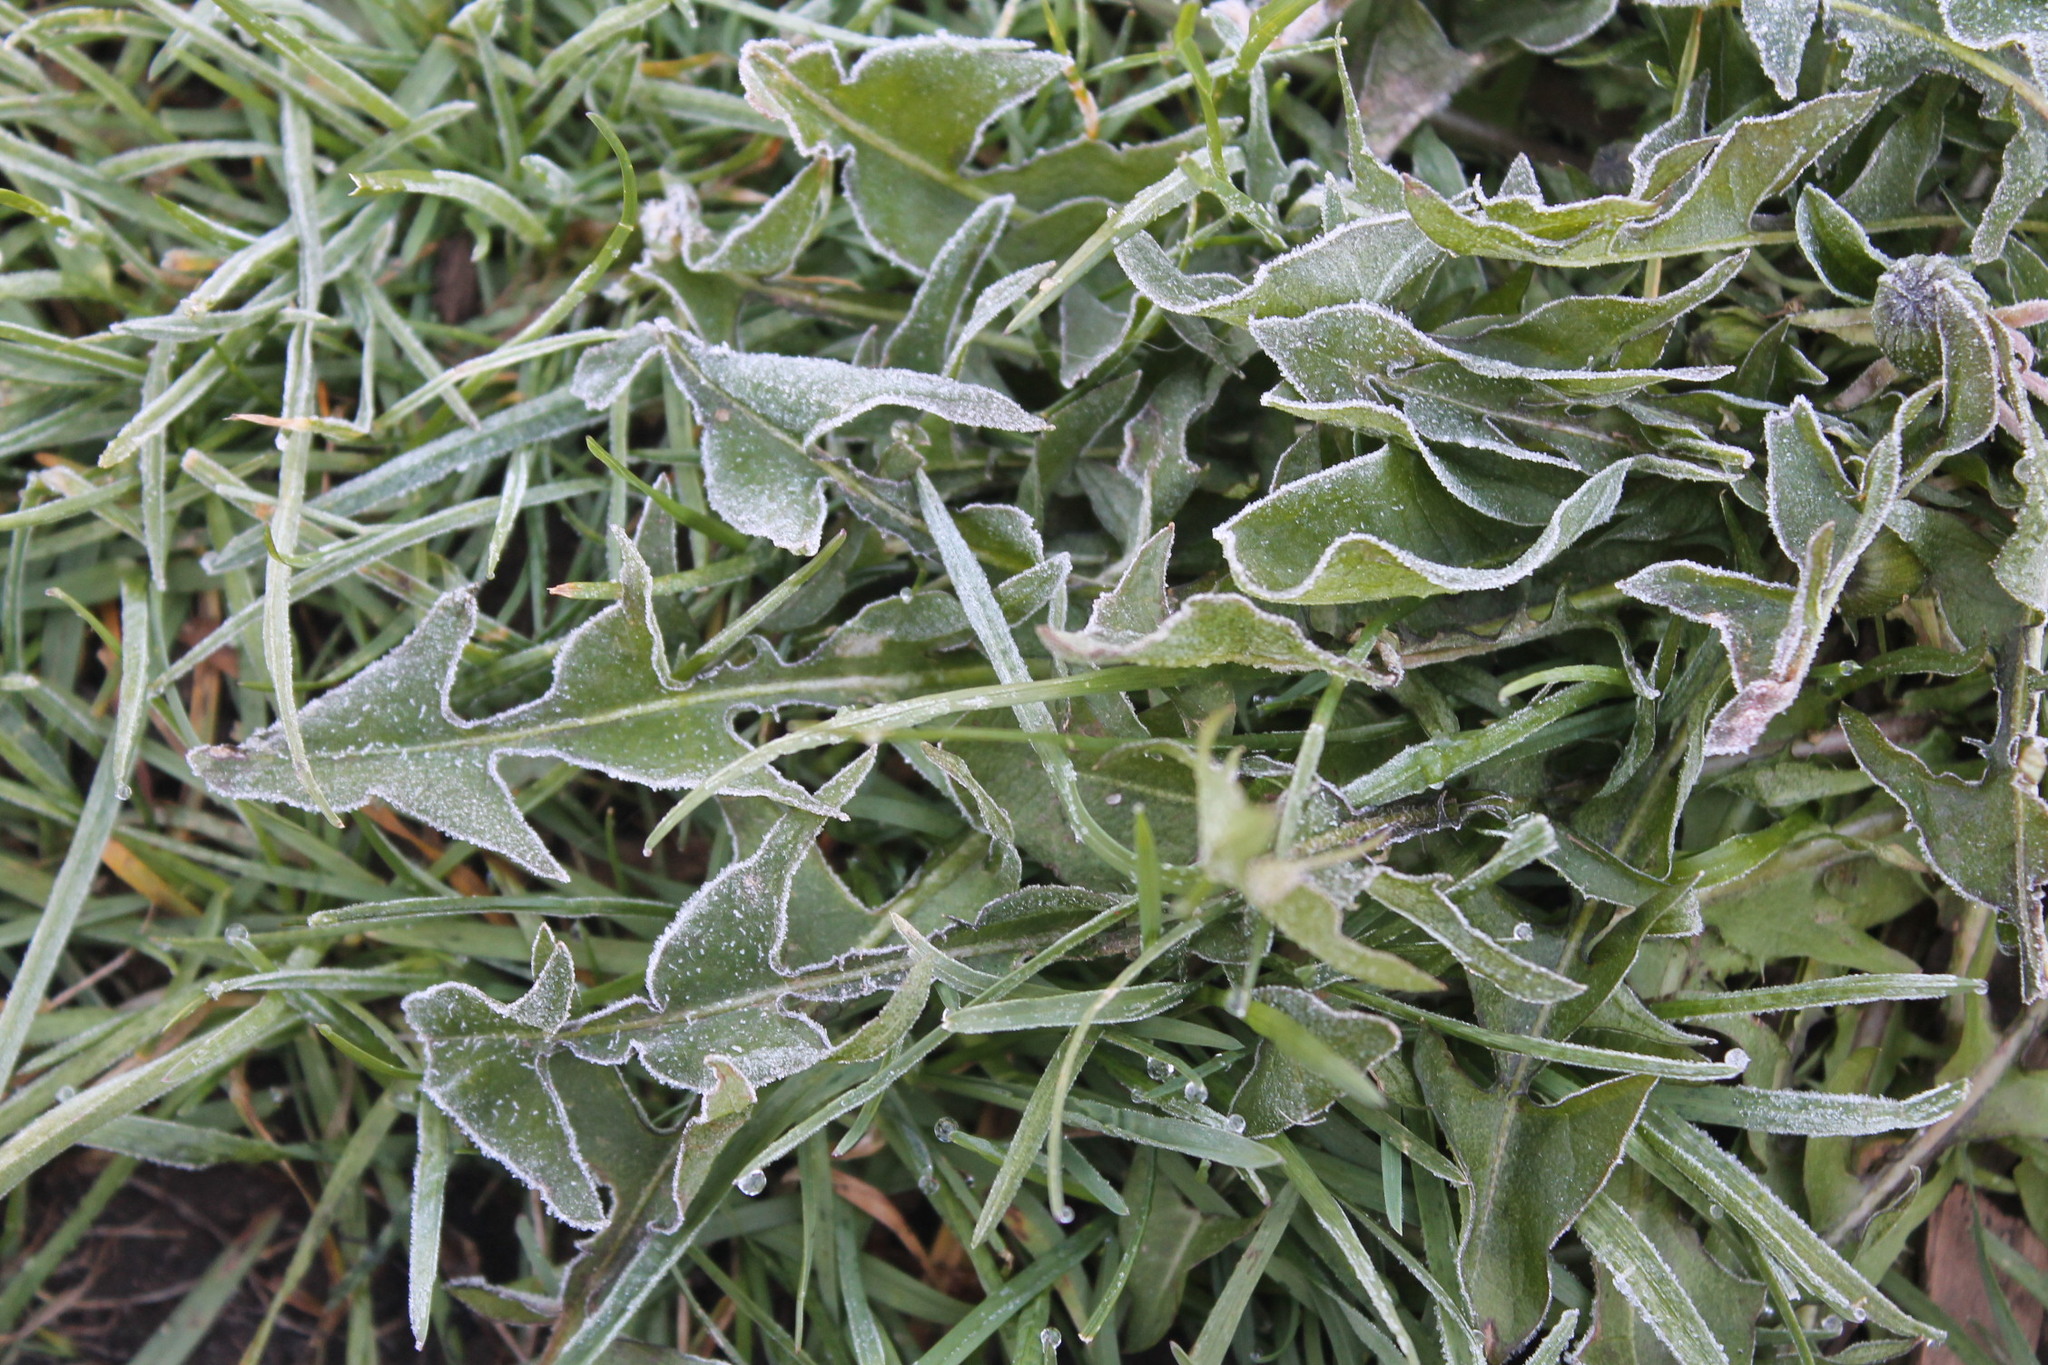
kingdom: Plantae
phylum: Tracheophyta
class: Magnoliopsida
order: Asterales
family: Asteraceae
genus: Taraxacum
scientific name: Taraxacum erythrospermum
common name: Rock dandelion
